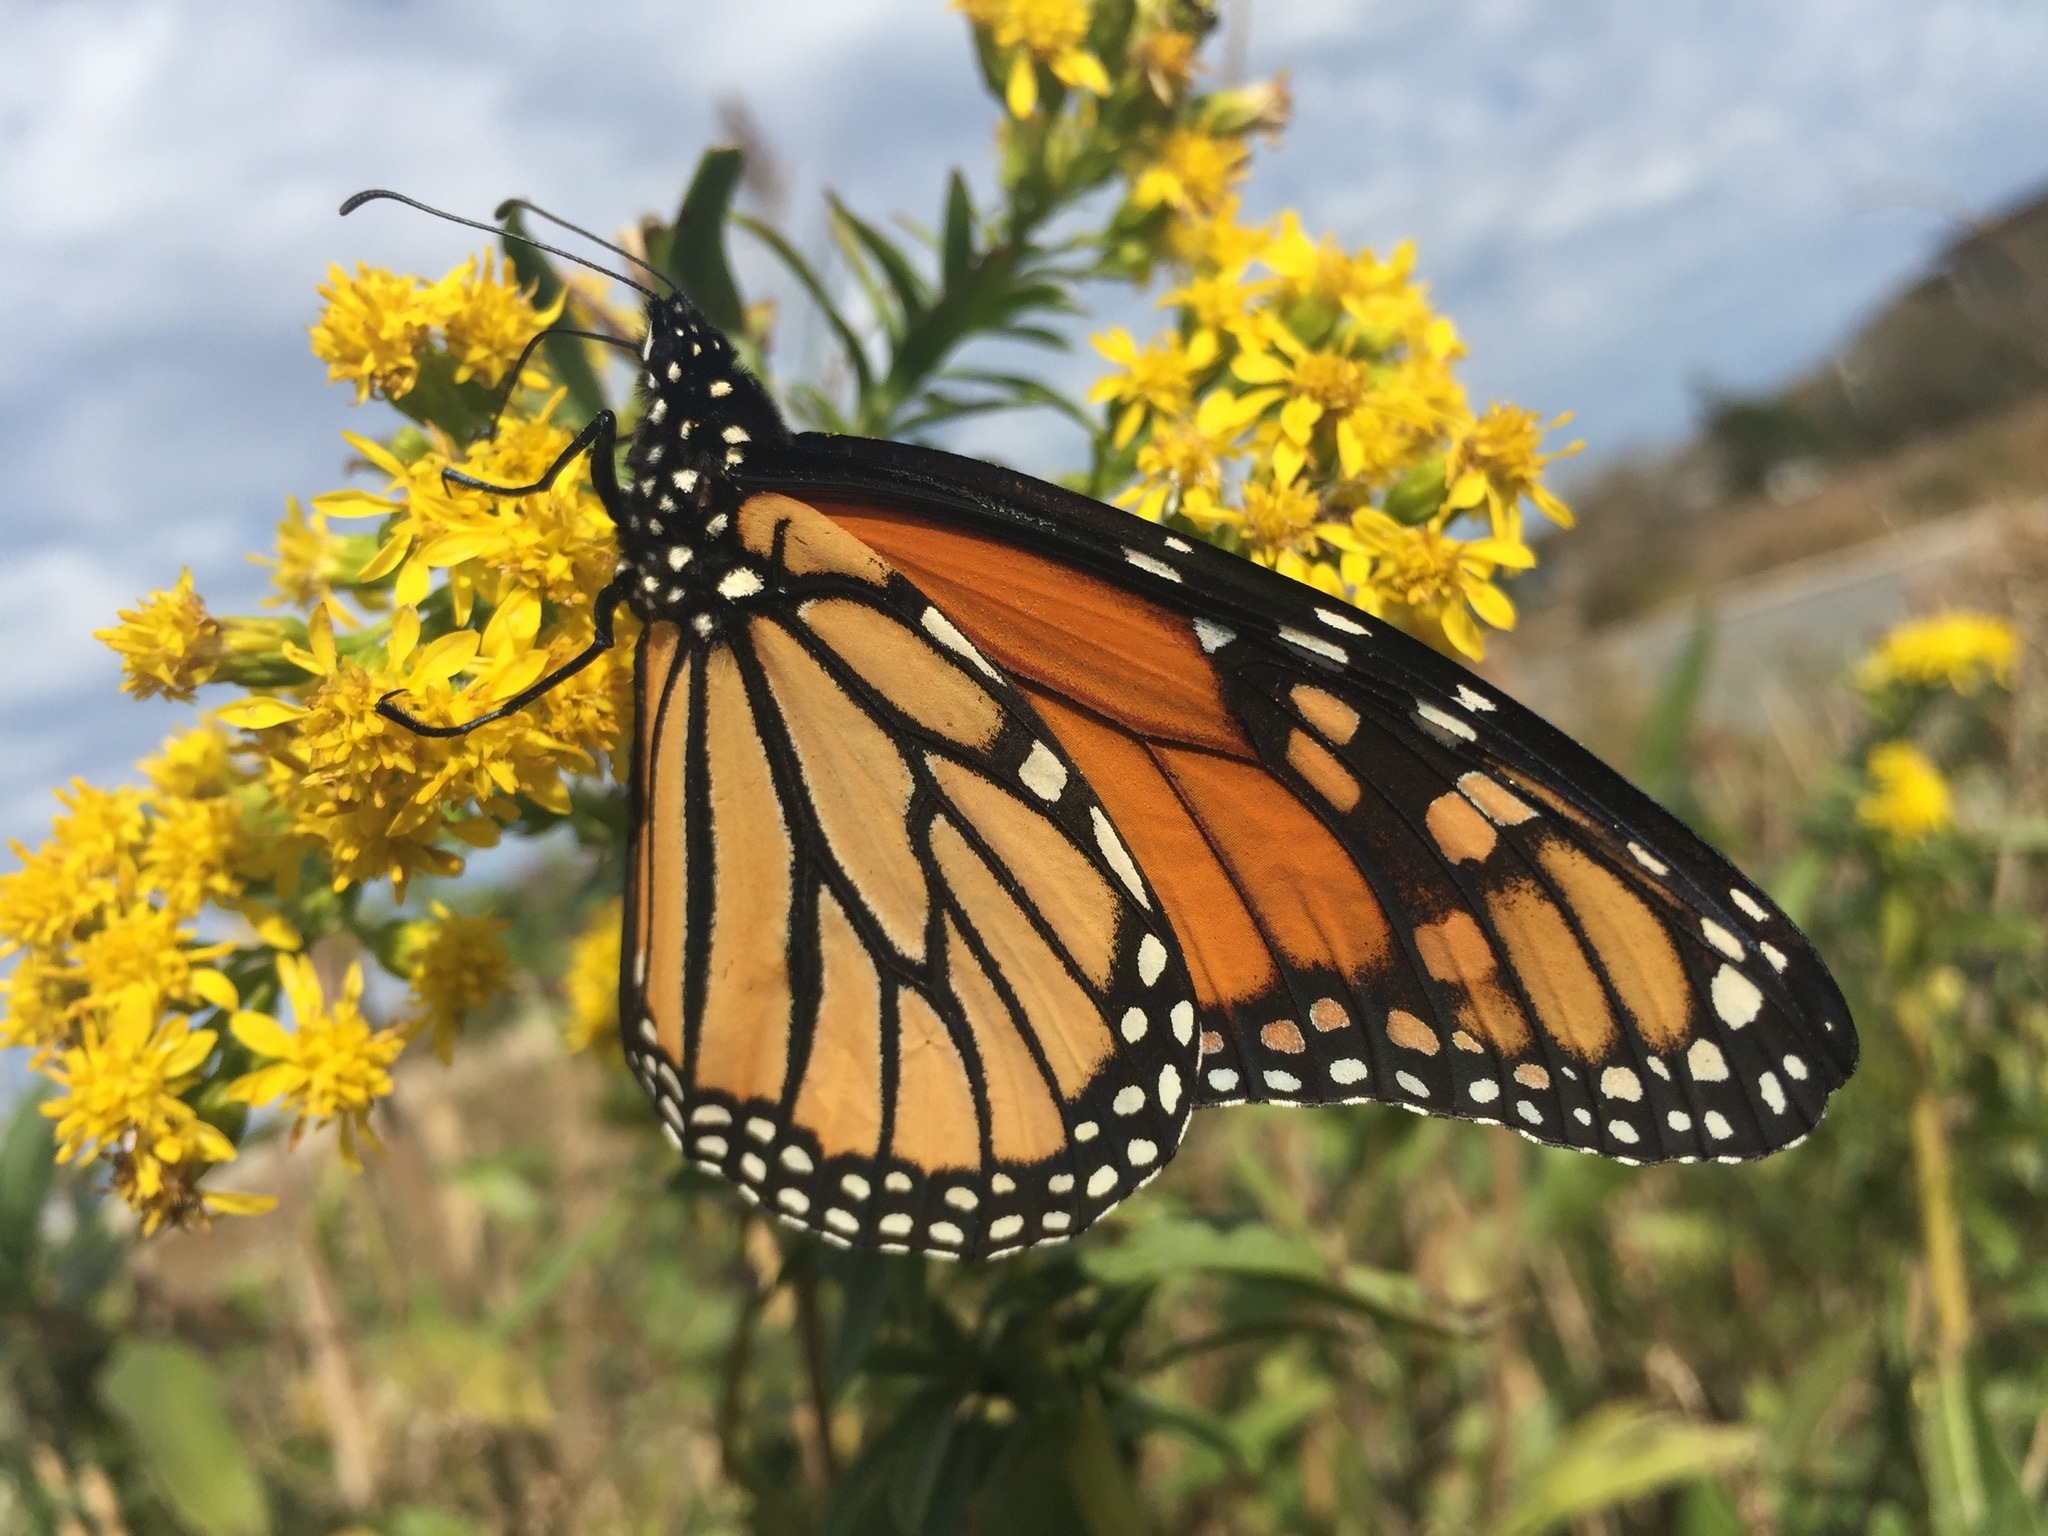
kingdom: Animalia
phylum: Arthropoda
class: Insecta
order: Lepidoptera
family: Nymphalidae
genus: Danaus
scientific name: Danaus plexippus
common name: Monarch
